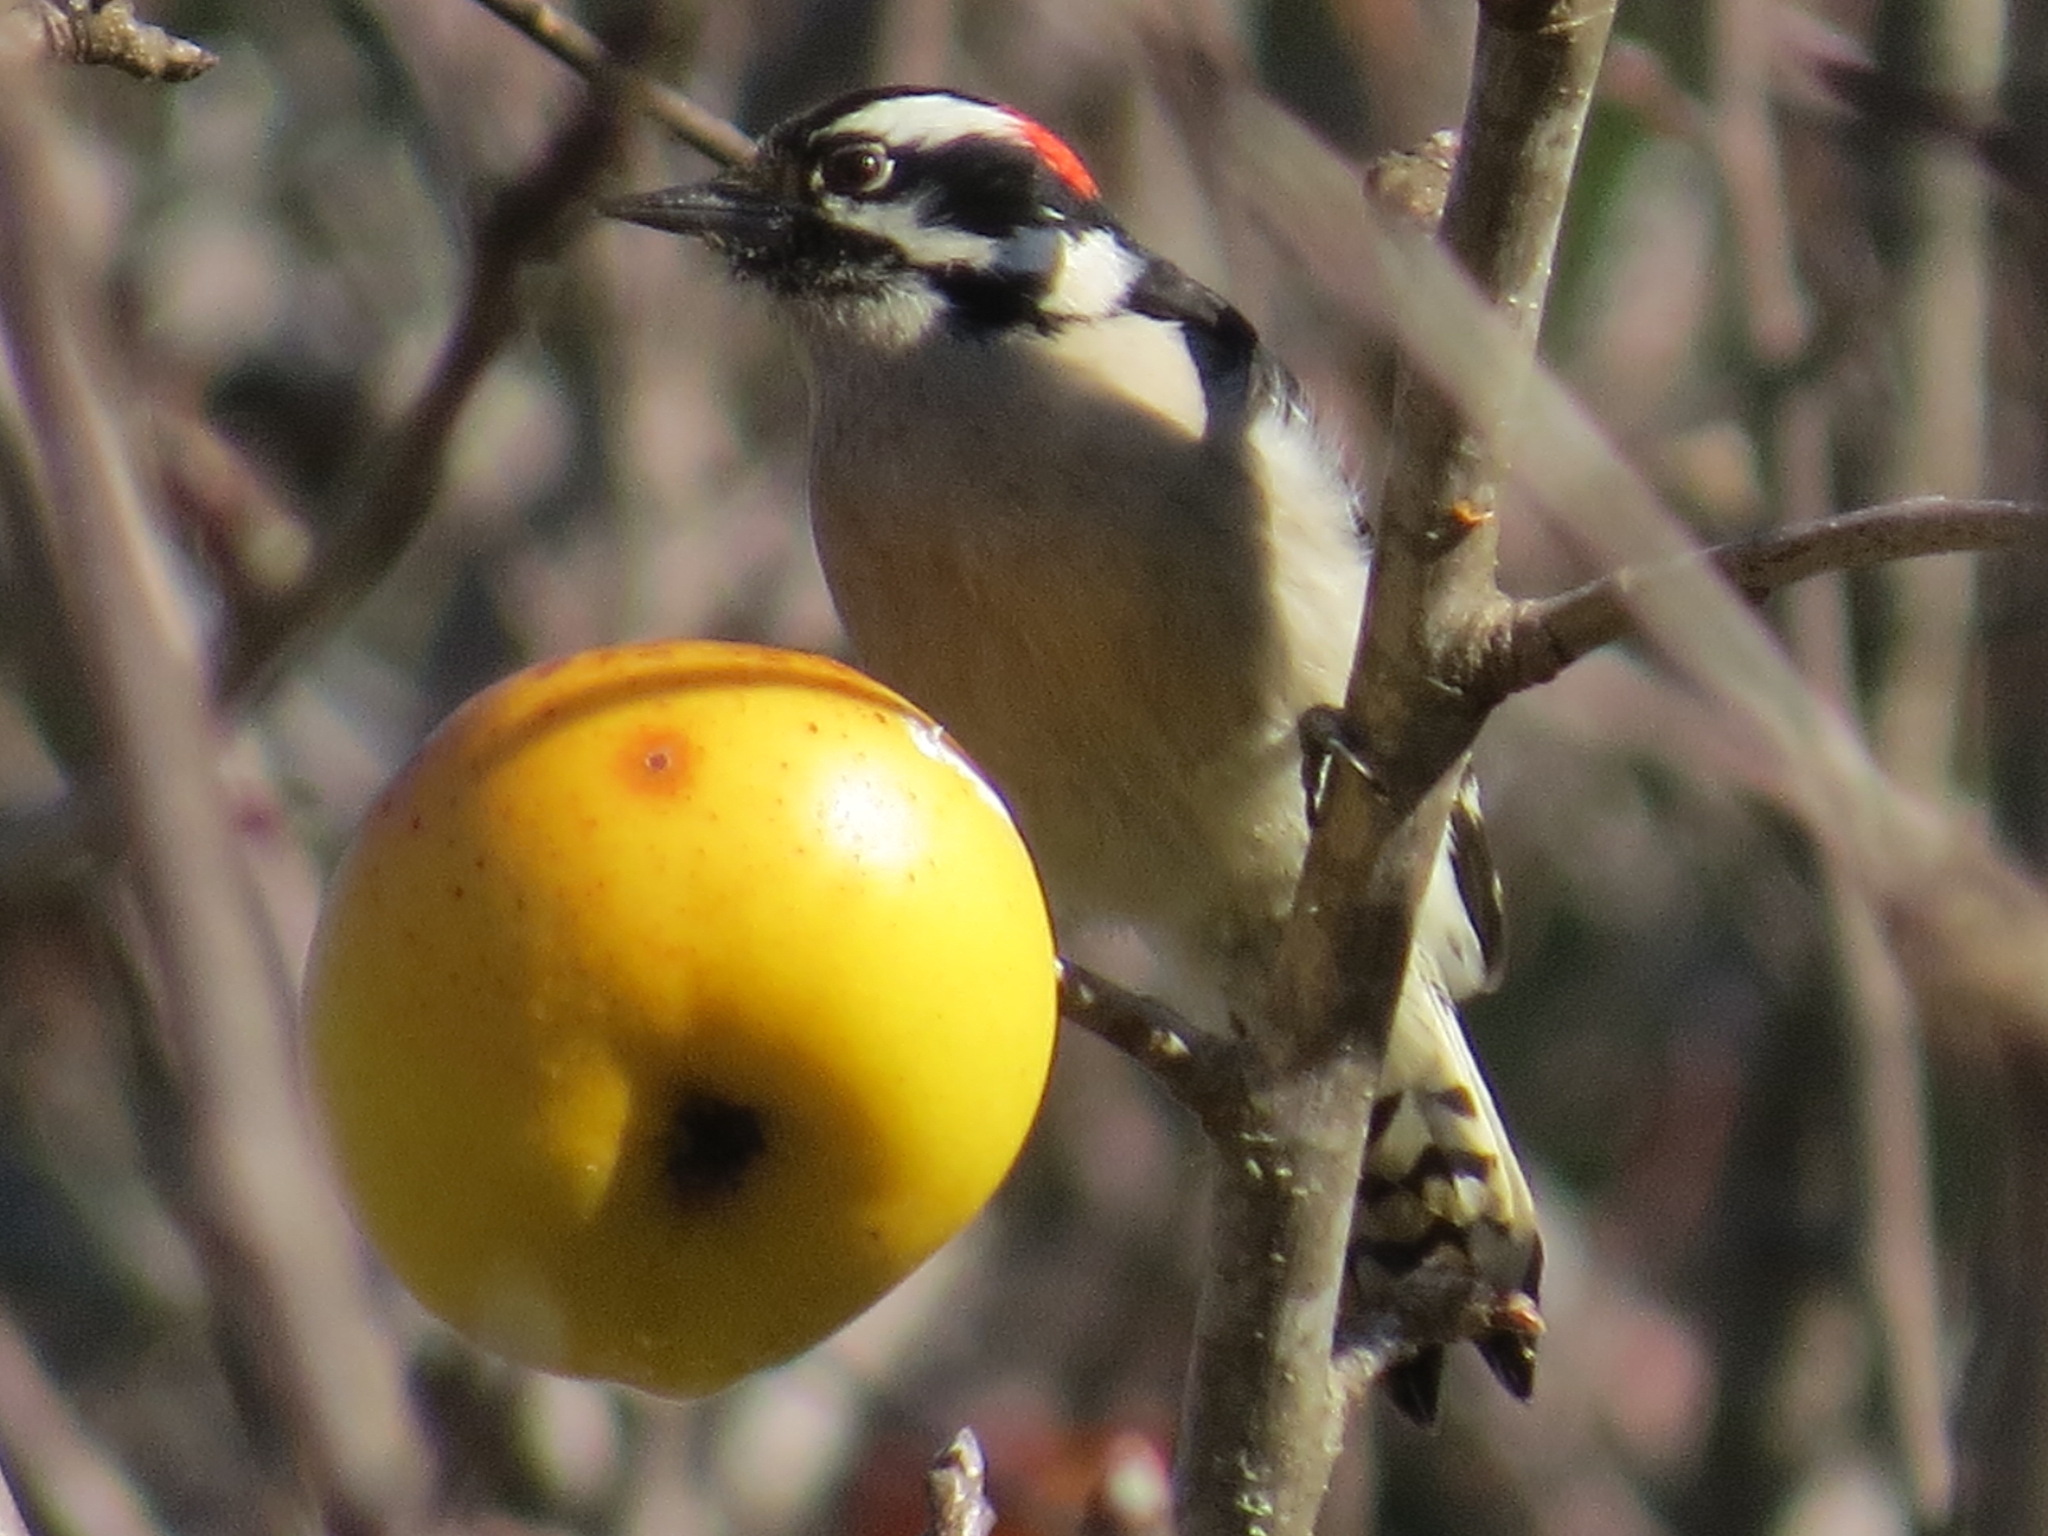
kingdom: Animalia
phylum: Chordata
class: Aves
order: Piciformes
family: Picidae
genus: Dryobates
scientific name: Dryobates pubescens
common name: Downy woodpecker
